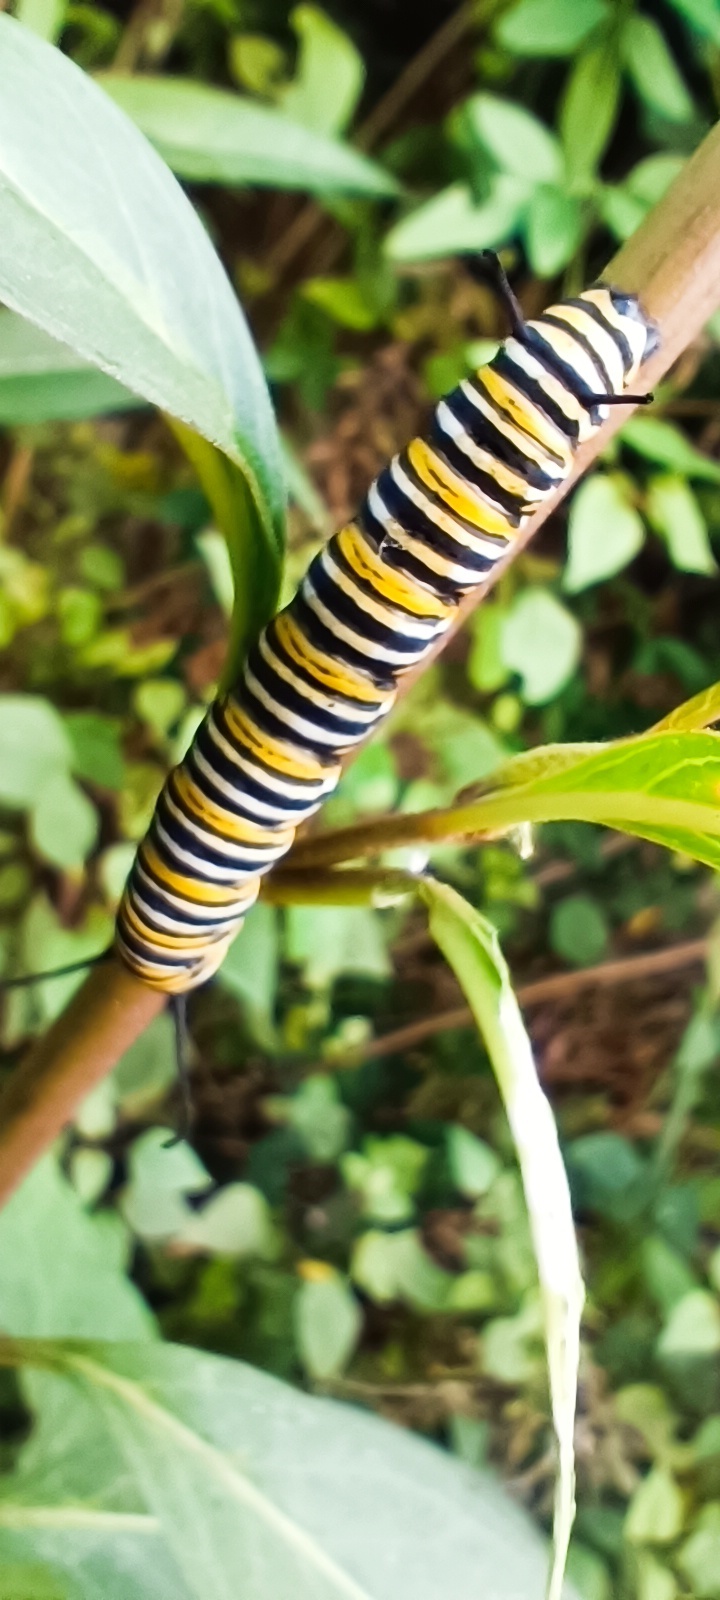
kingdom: Animalia
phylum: Arthropoda
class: Insecta
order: Lepidoptera
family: Nymphalidae
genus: Danaus
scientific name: Danaus plexippus
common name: Monarch
